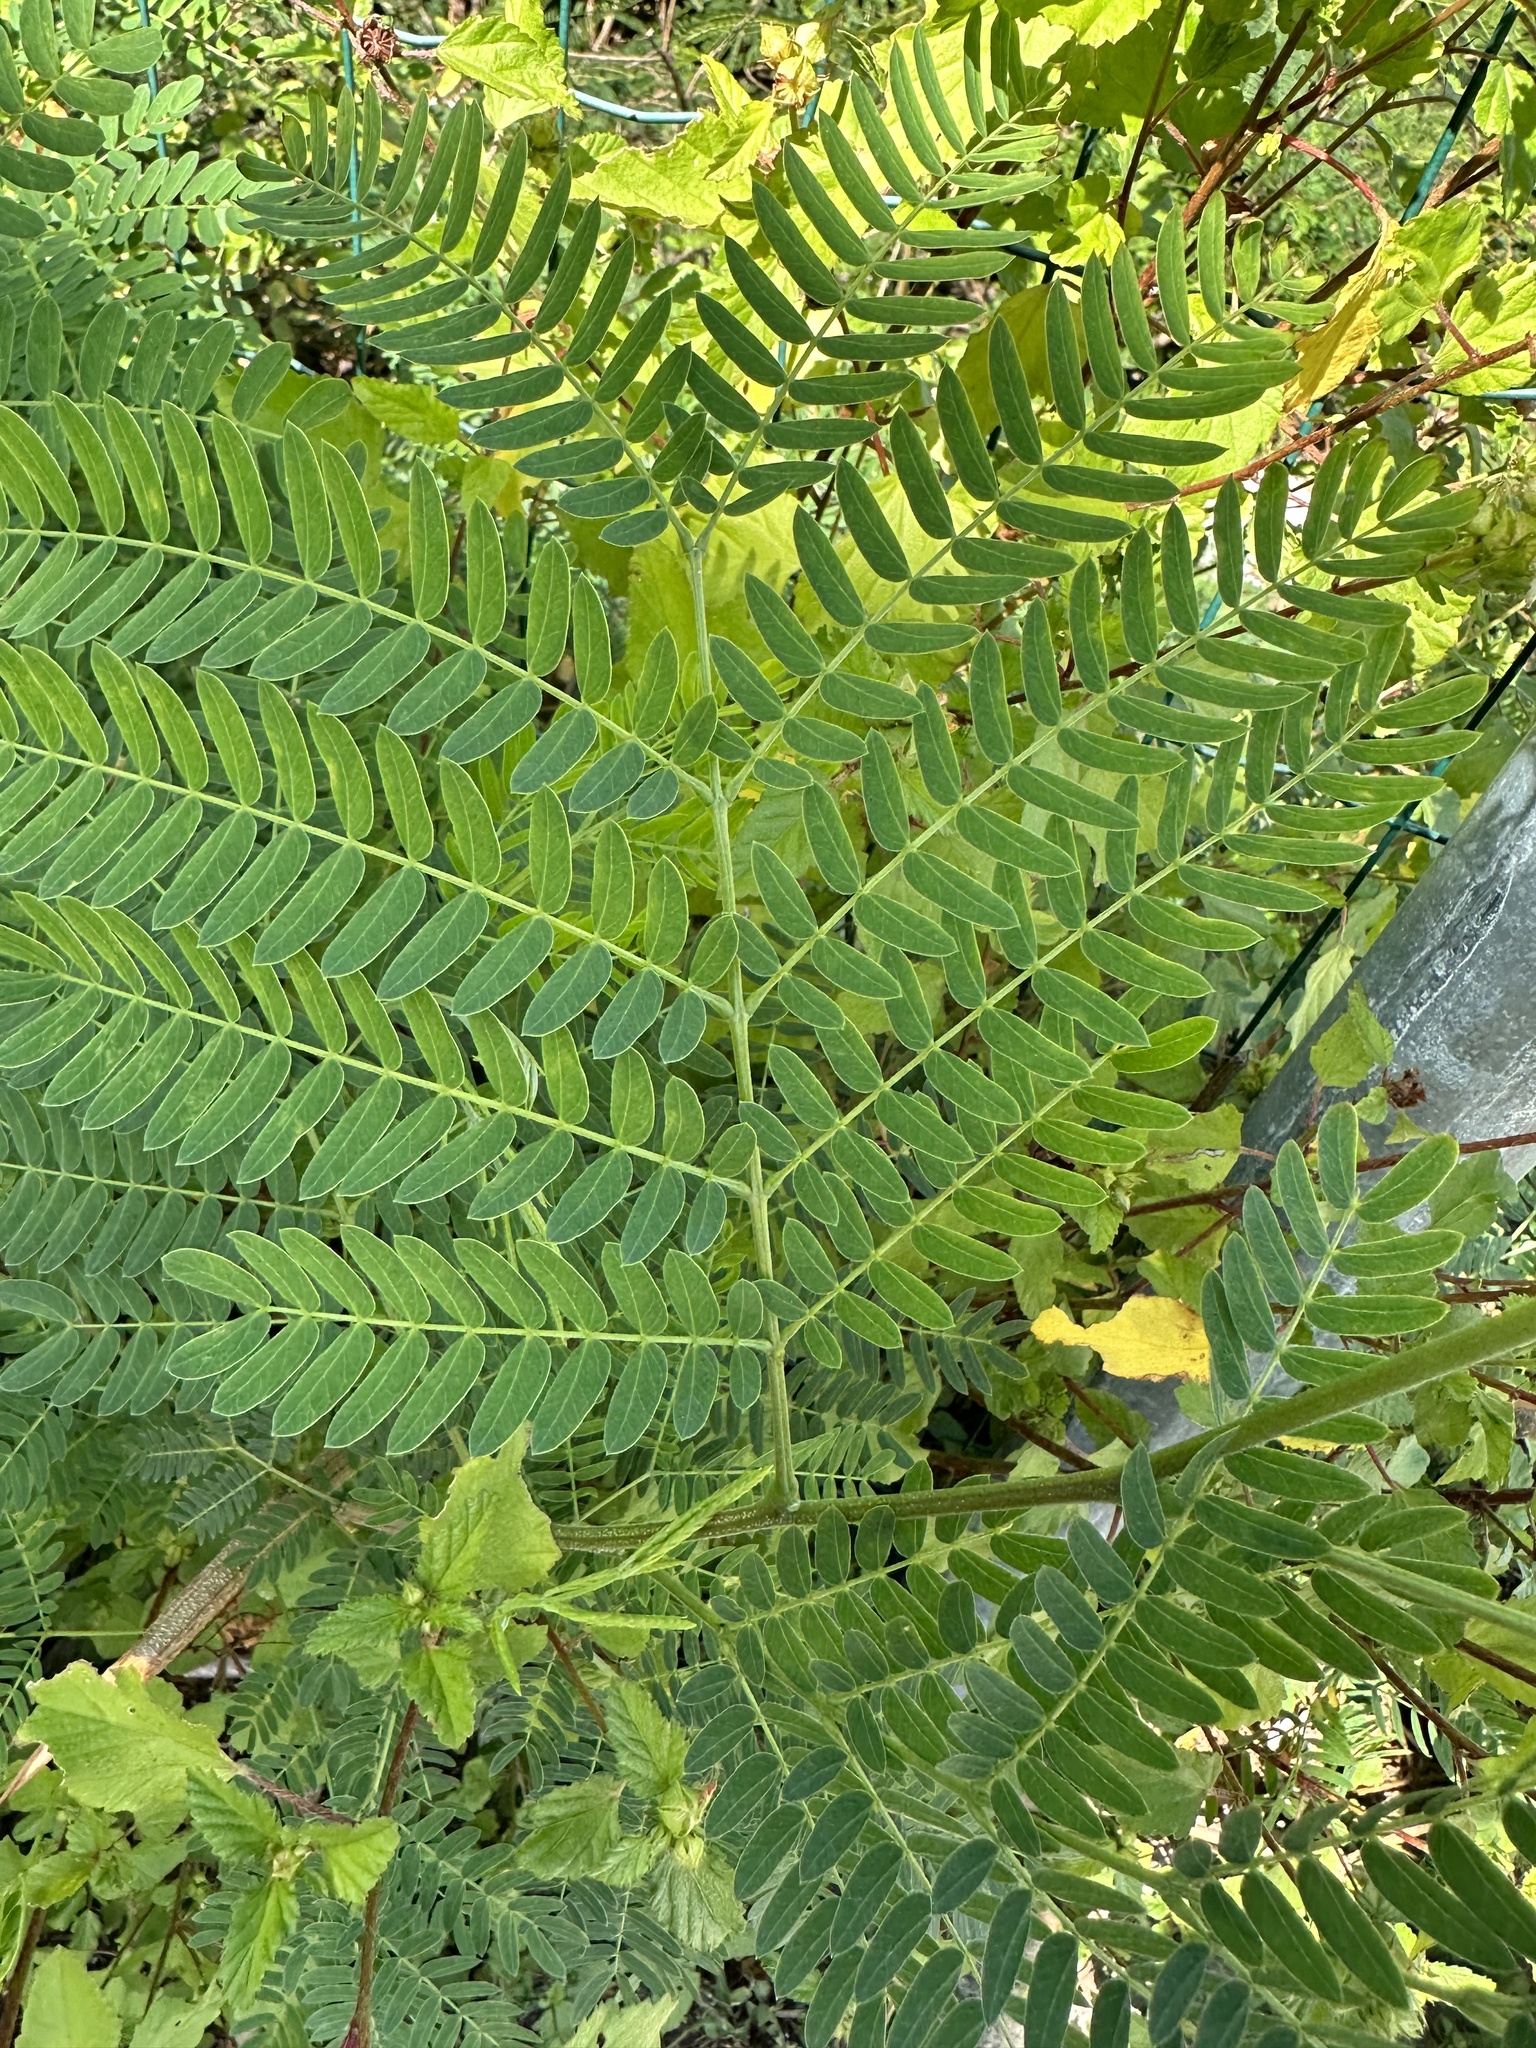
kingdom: Plantae
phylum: Tracheophyta
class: Magnoliopsida
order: Fabales
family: Fabaceae
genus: Leucaena
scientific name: Leucaena leucocephala
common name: White leadtree
